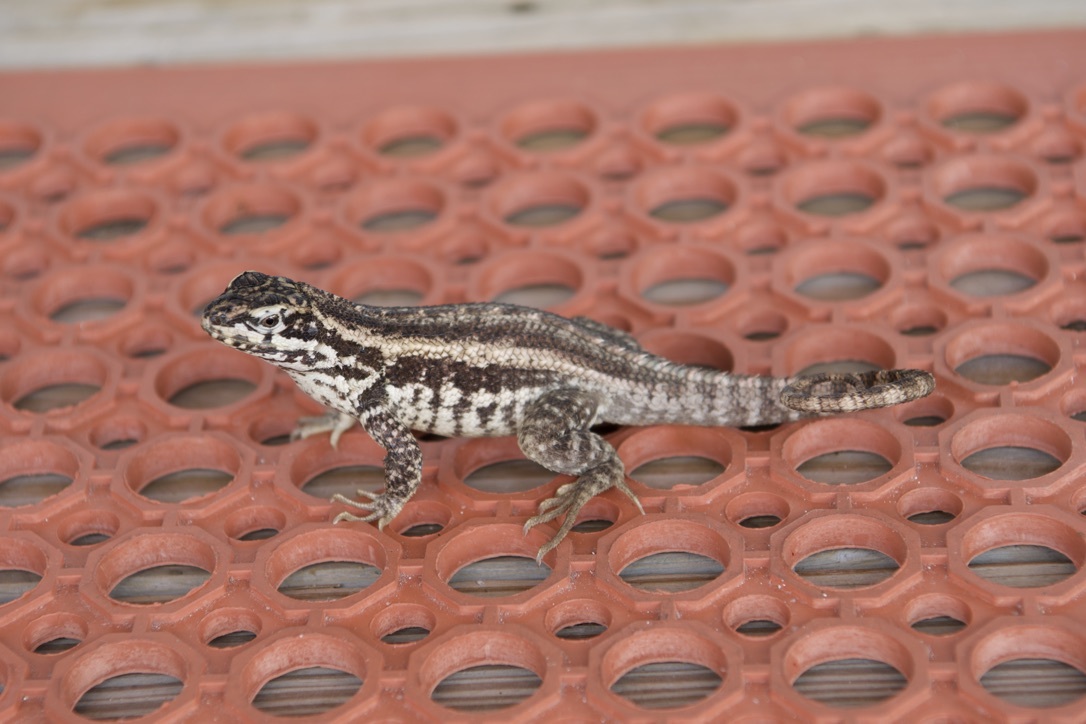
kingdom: Animalia
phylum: Chordata
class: Squamata
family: Leiocephalidae
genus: Leiocephalus
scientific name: Leiocephalus carinatus
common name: Northern curly-tailed lizard
